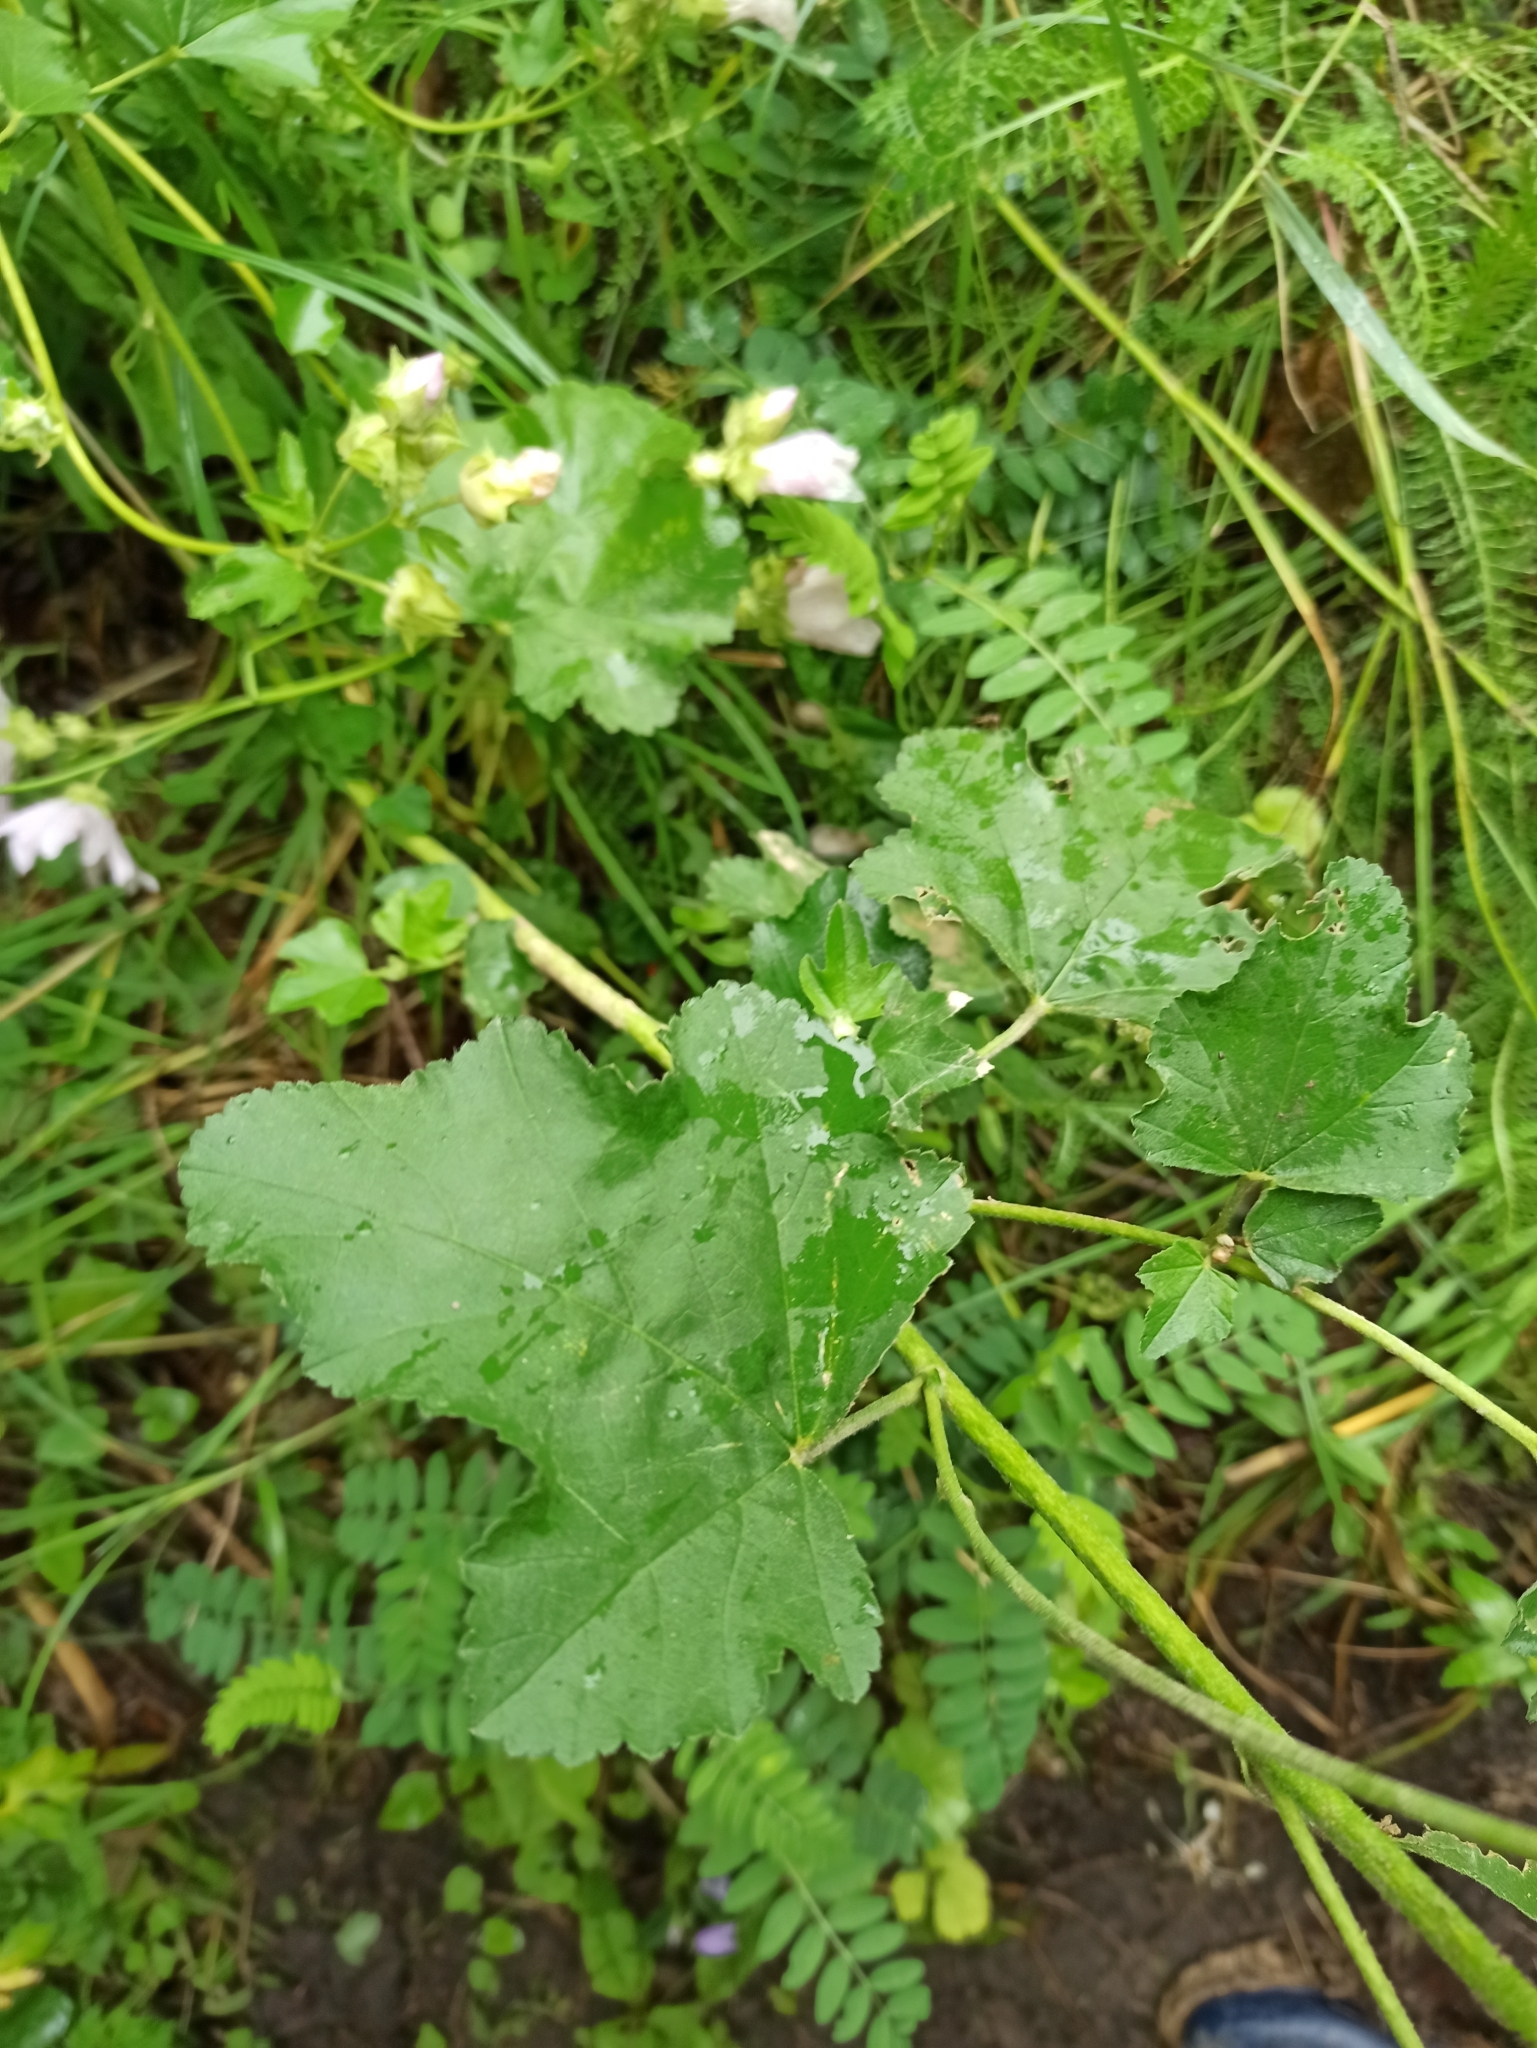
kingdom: Plantae
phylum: Tracheophyta
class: Magnoliopsida
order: Malvales
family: Malvaceae
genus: Malva
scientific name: Malva thuringiaca
